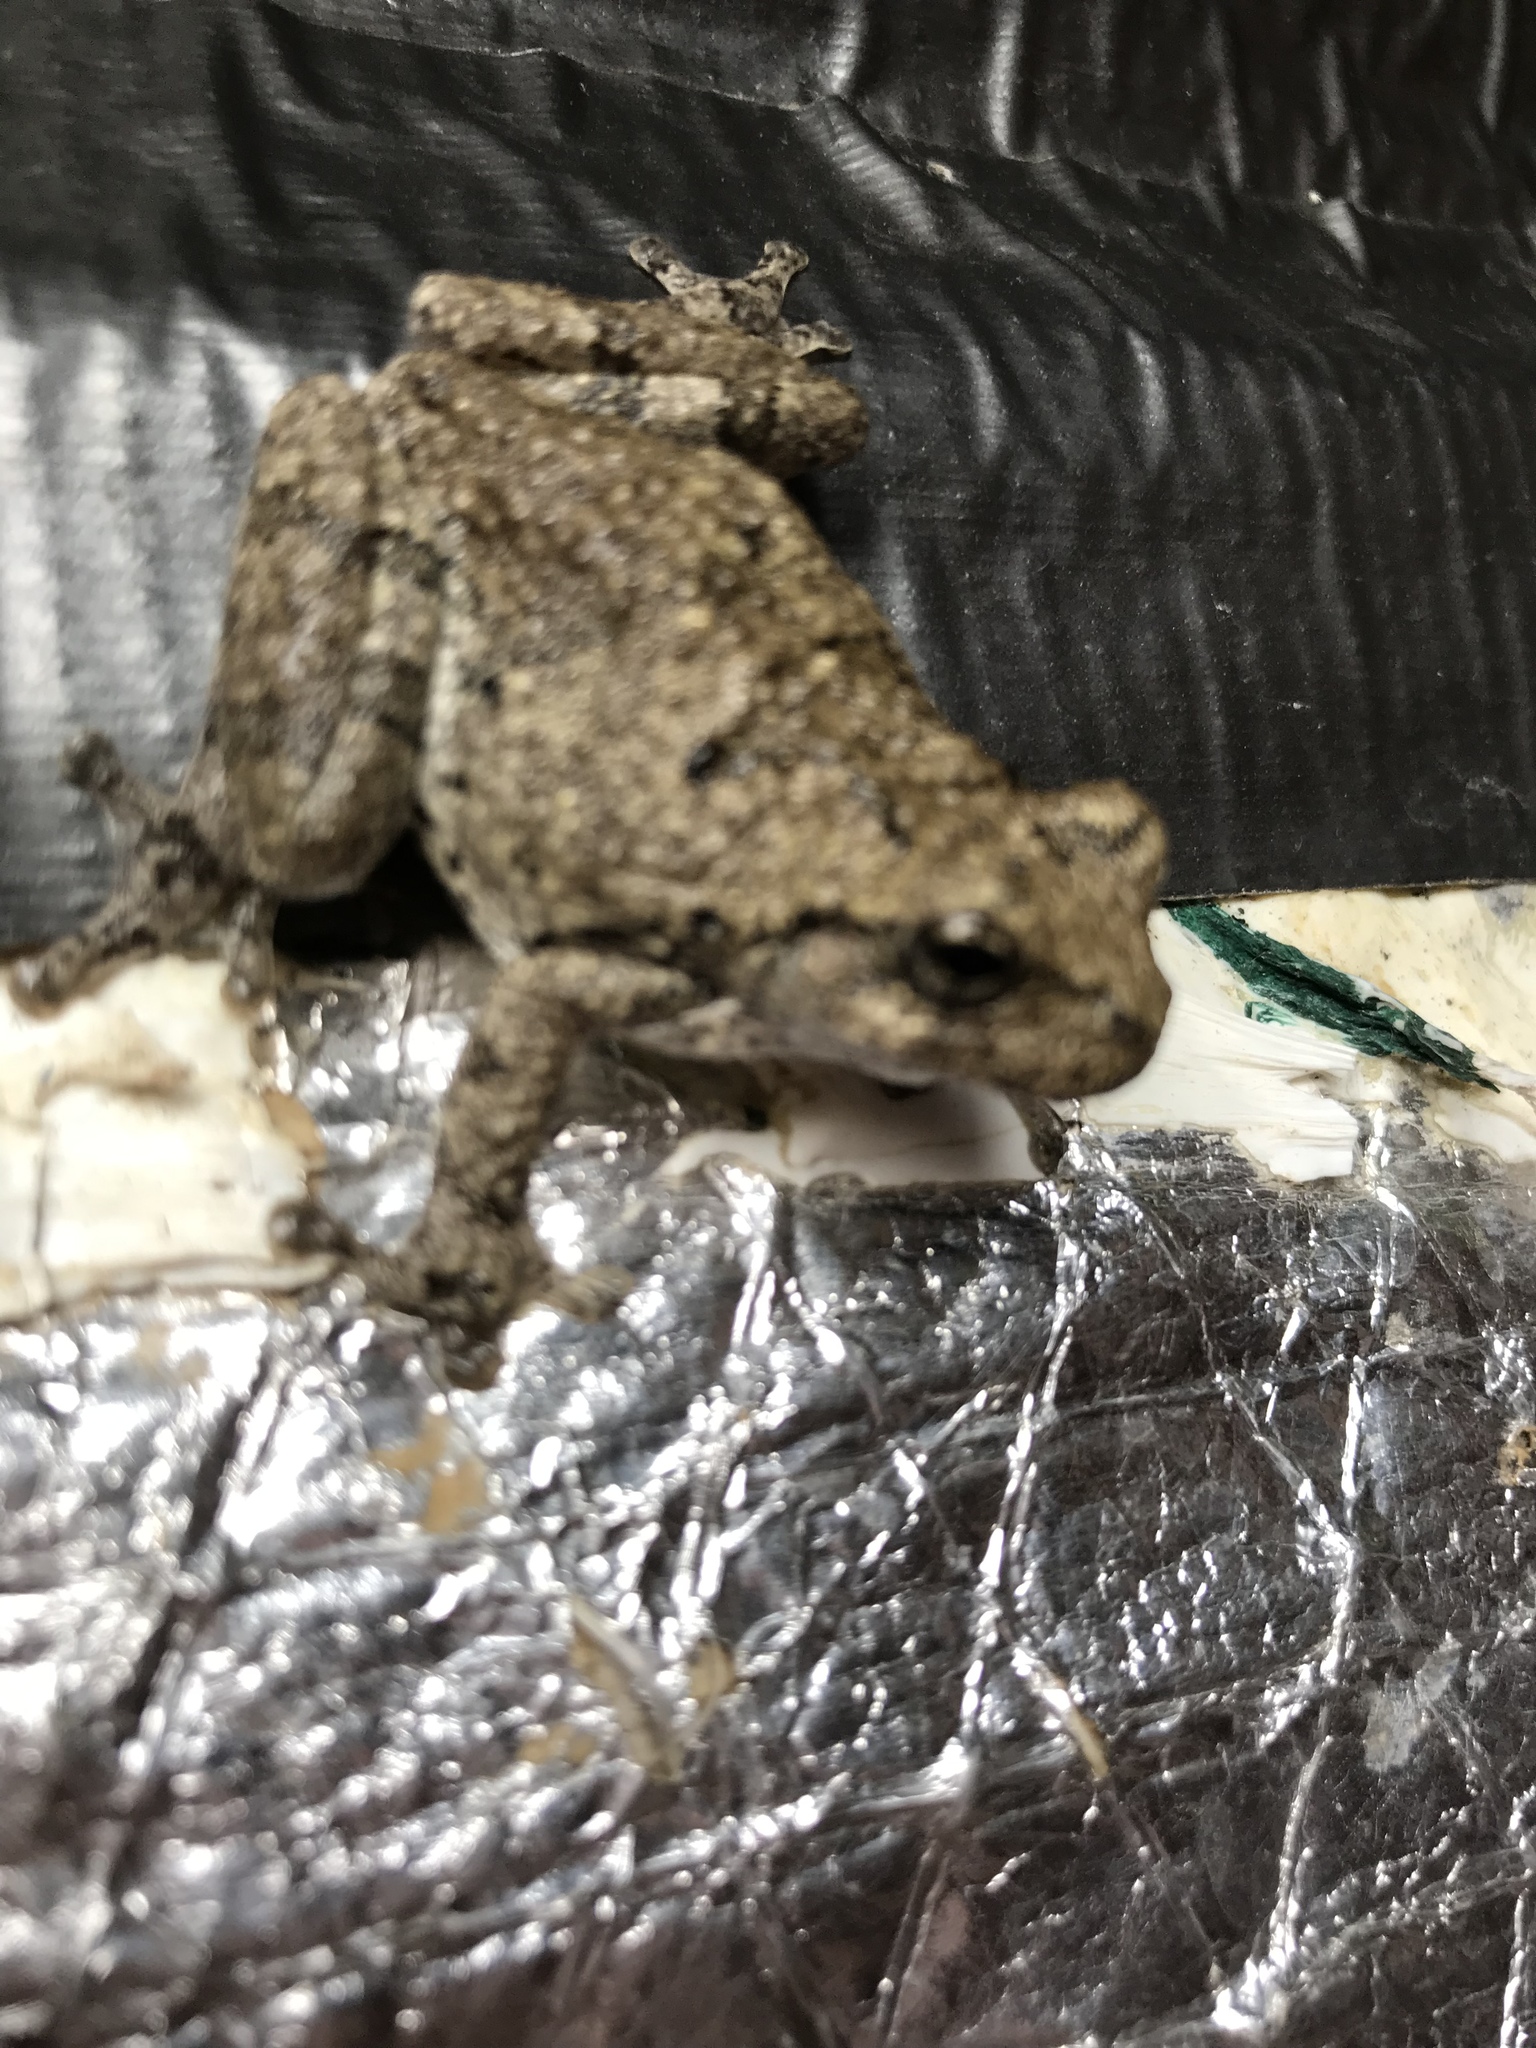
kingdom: Animalia
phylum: Chordata
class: Amphibia
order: Anura
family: Hylidae
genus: Dryophytes
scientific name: Dryophytes chrysoscelis
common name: Cope's gray treefrog
